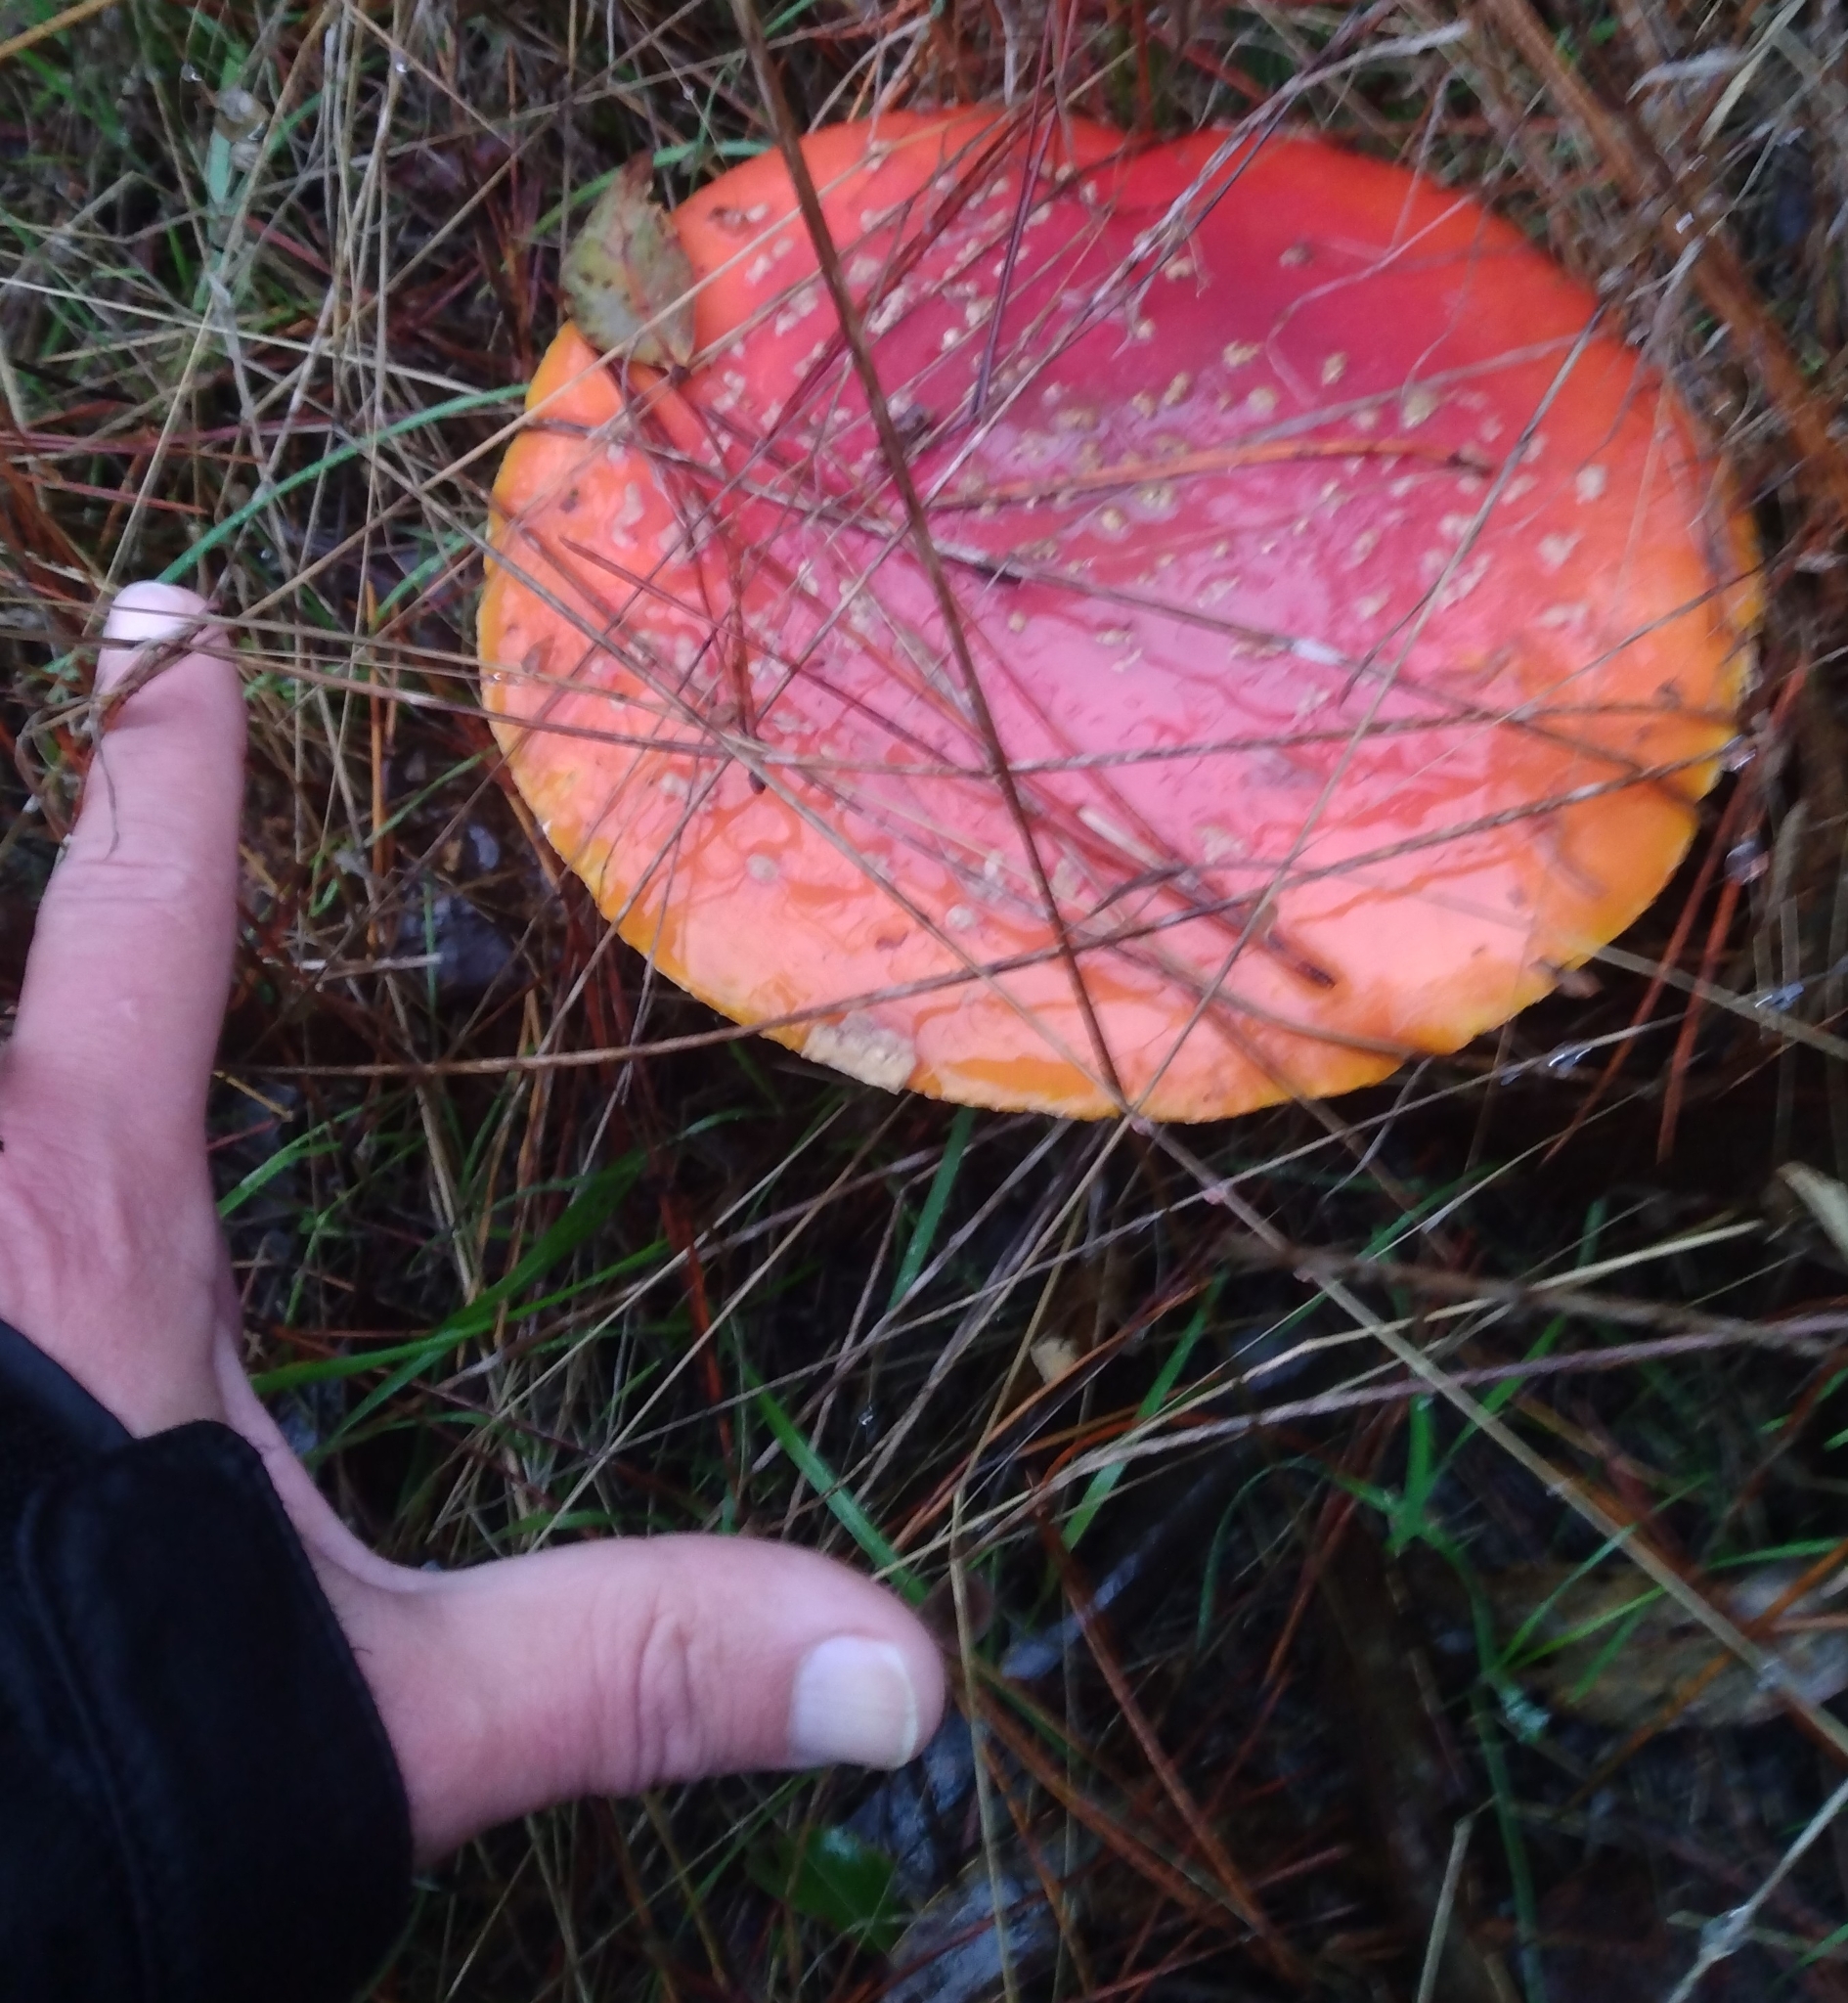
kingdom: Fungi
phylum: Basidiomycota
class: Agaricomycetes
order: Agaricales
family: Amanitaceae
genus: Amanita
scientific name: Amanita muscaria
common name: Fly agaric
